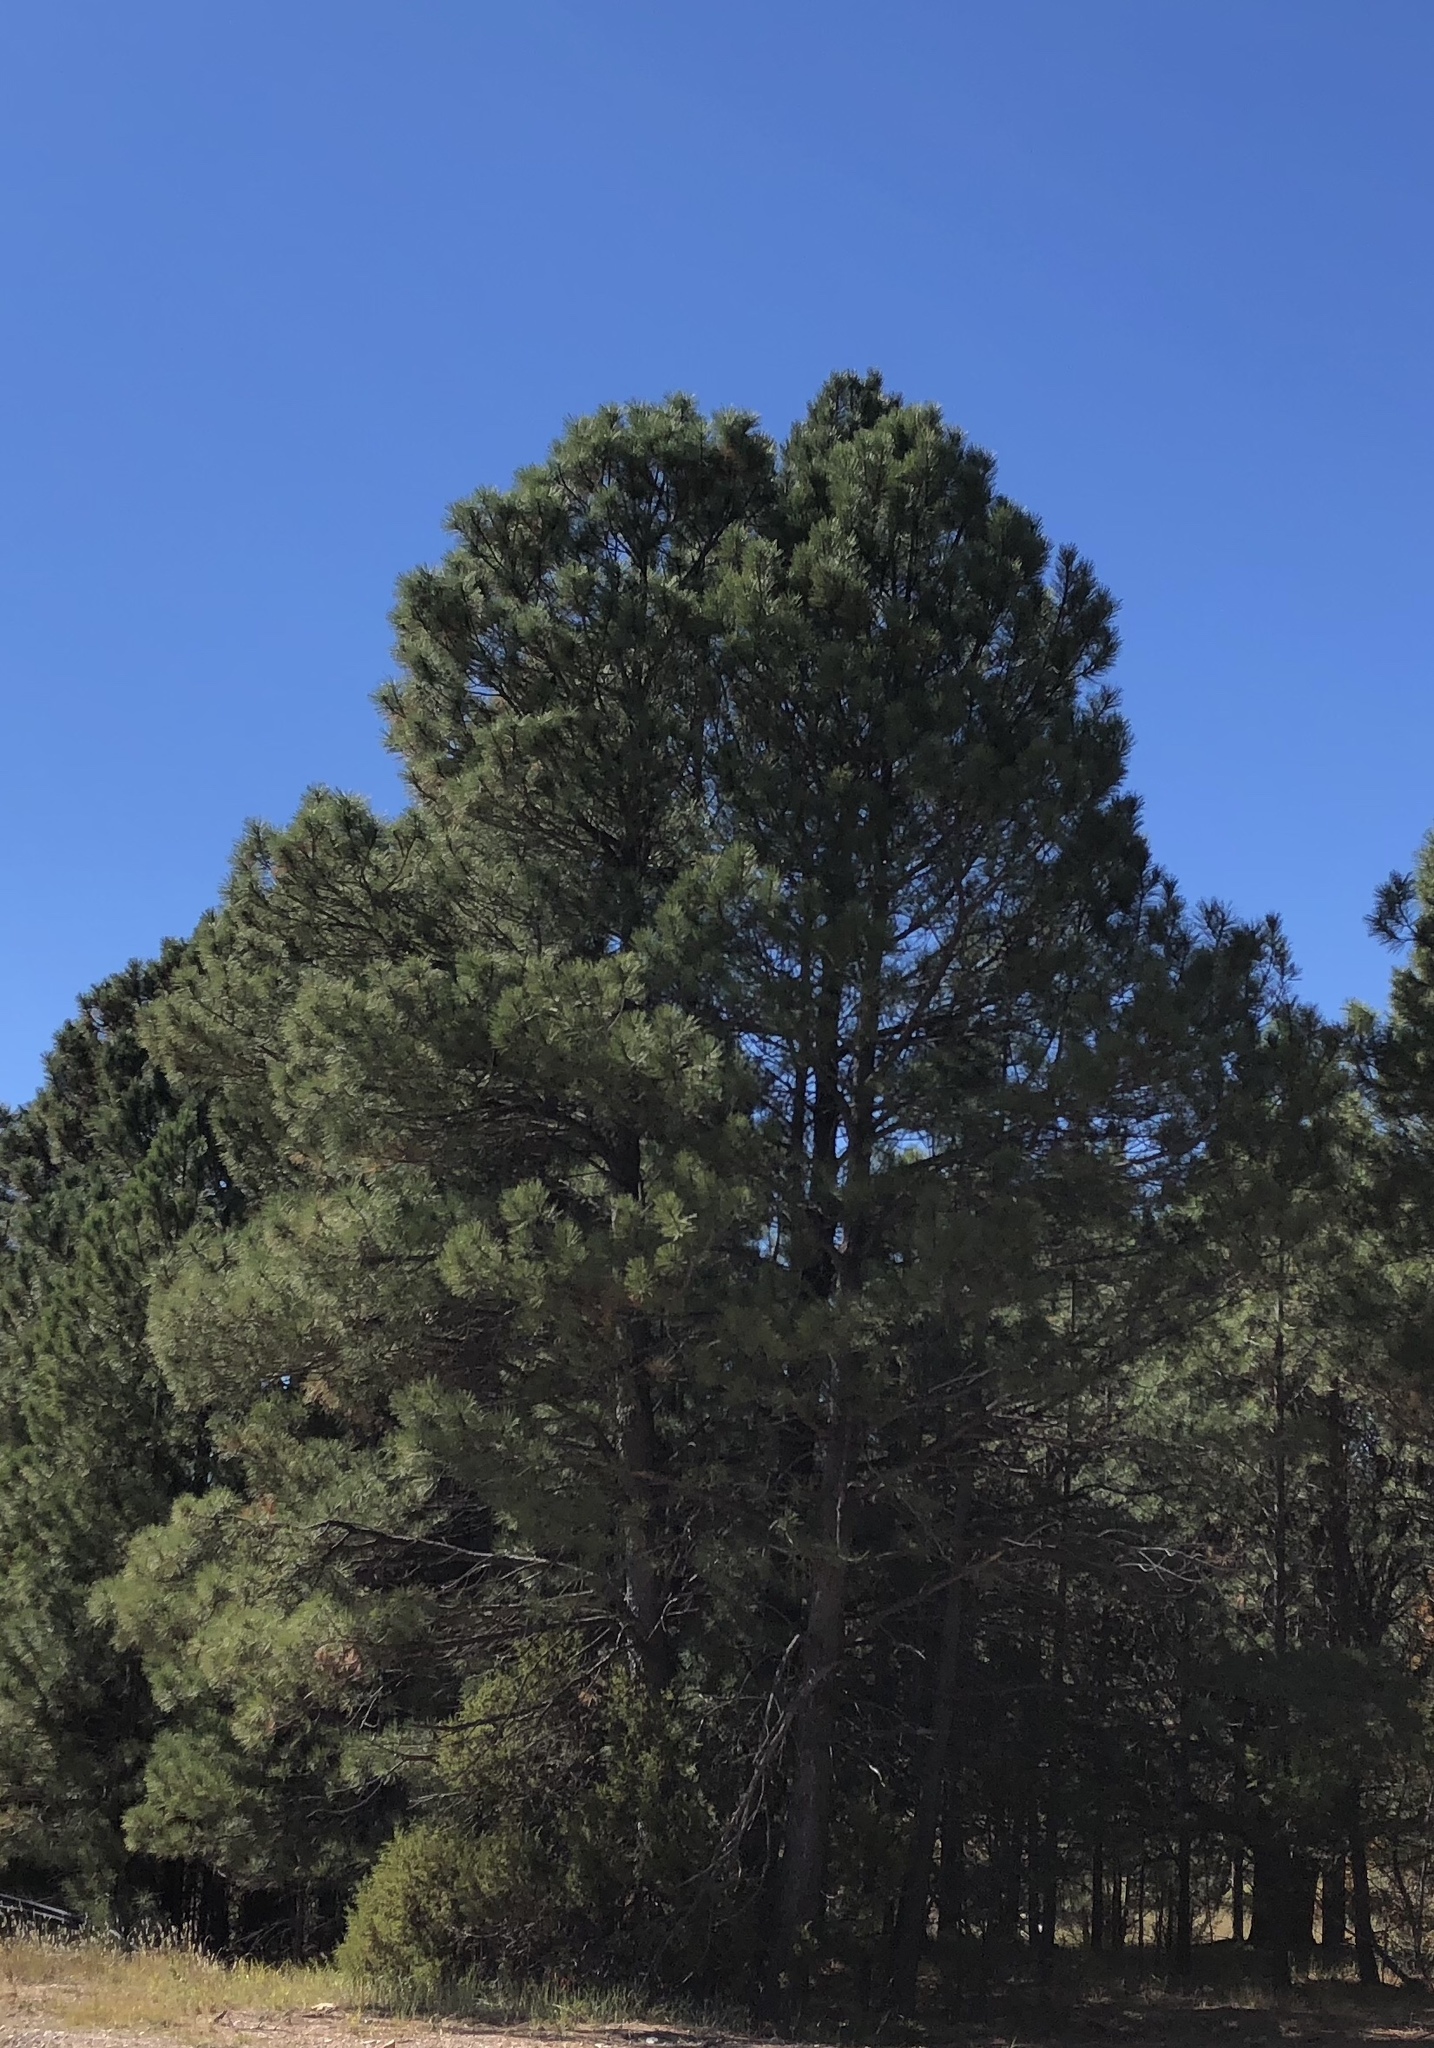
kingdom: Plantae
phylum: Tracheophyta
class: Pinopsida
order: Pinales
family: Pinaceae
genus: Pinus
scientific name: Pinus ponderosa
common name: Western yellow-pine
